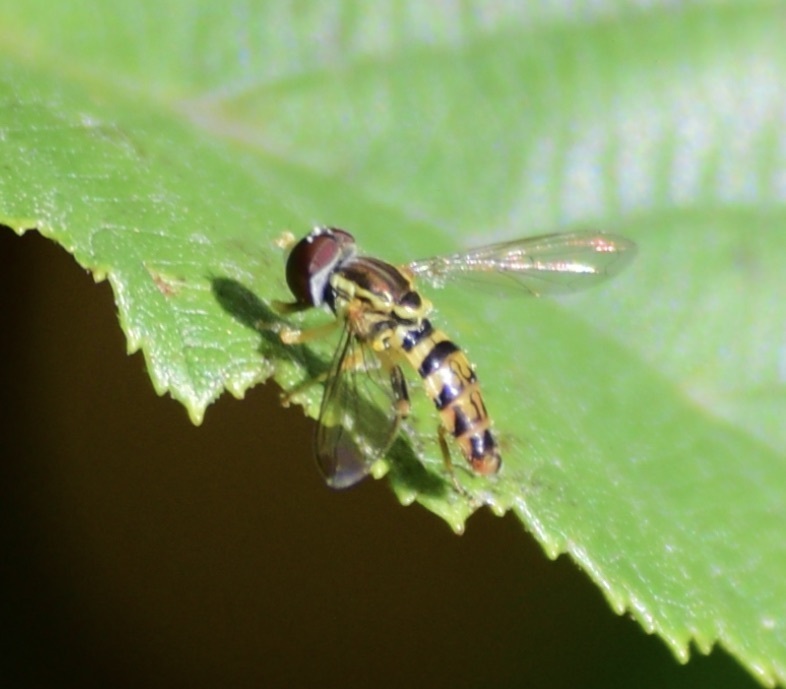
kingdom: Animalia
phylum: Arthropoda
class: Insecta
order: Diptera
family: Syrphidae
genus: Toxomerus
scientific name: Toxomerus geminatus
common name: Eastern calligrapher
